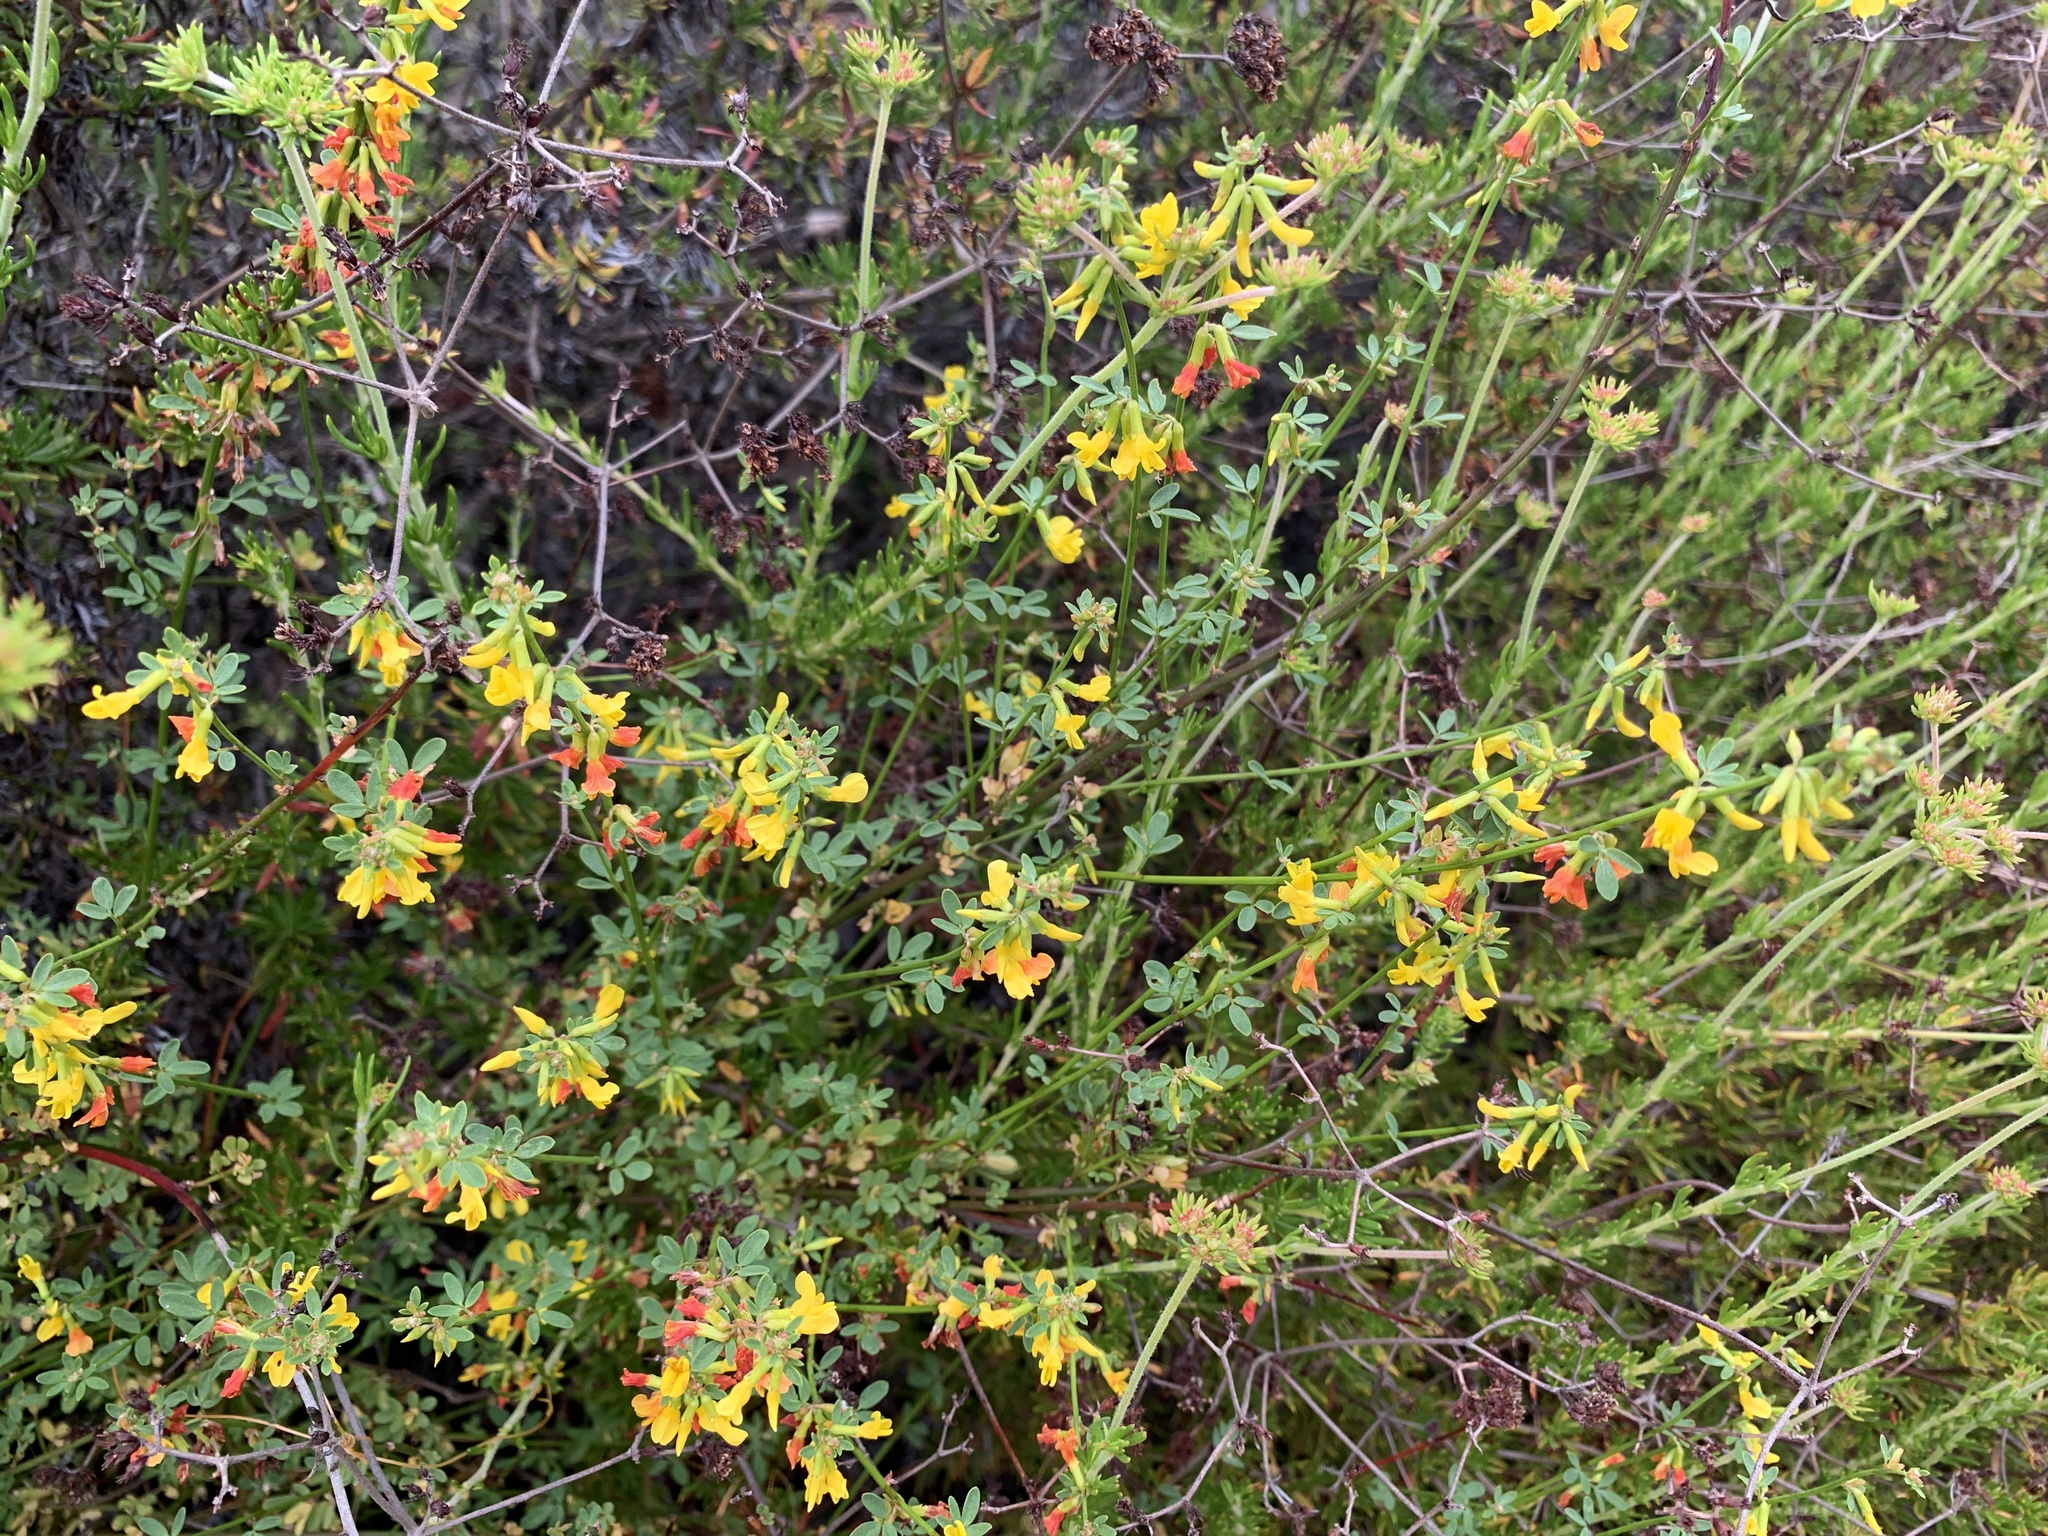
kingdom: Plantae
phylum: Tracheophyta
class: Magnoliopsida
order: Fabales
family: Fabaceae
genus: Acmispon
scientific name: Acmispon glaber
